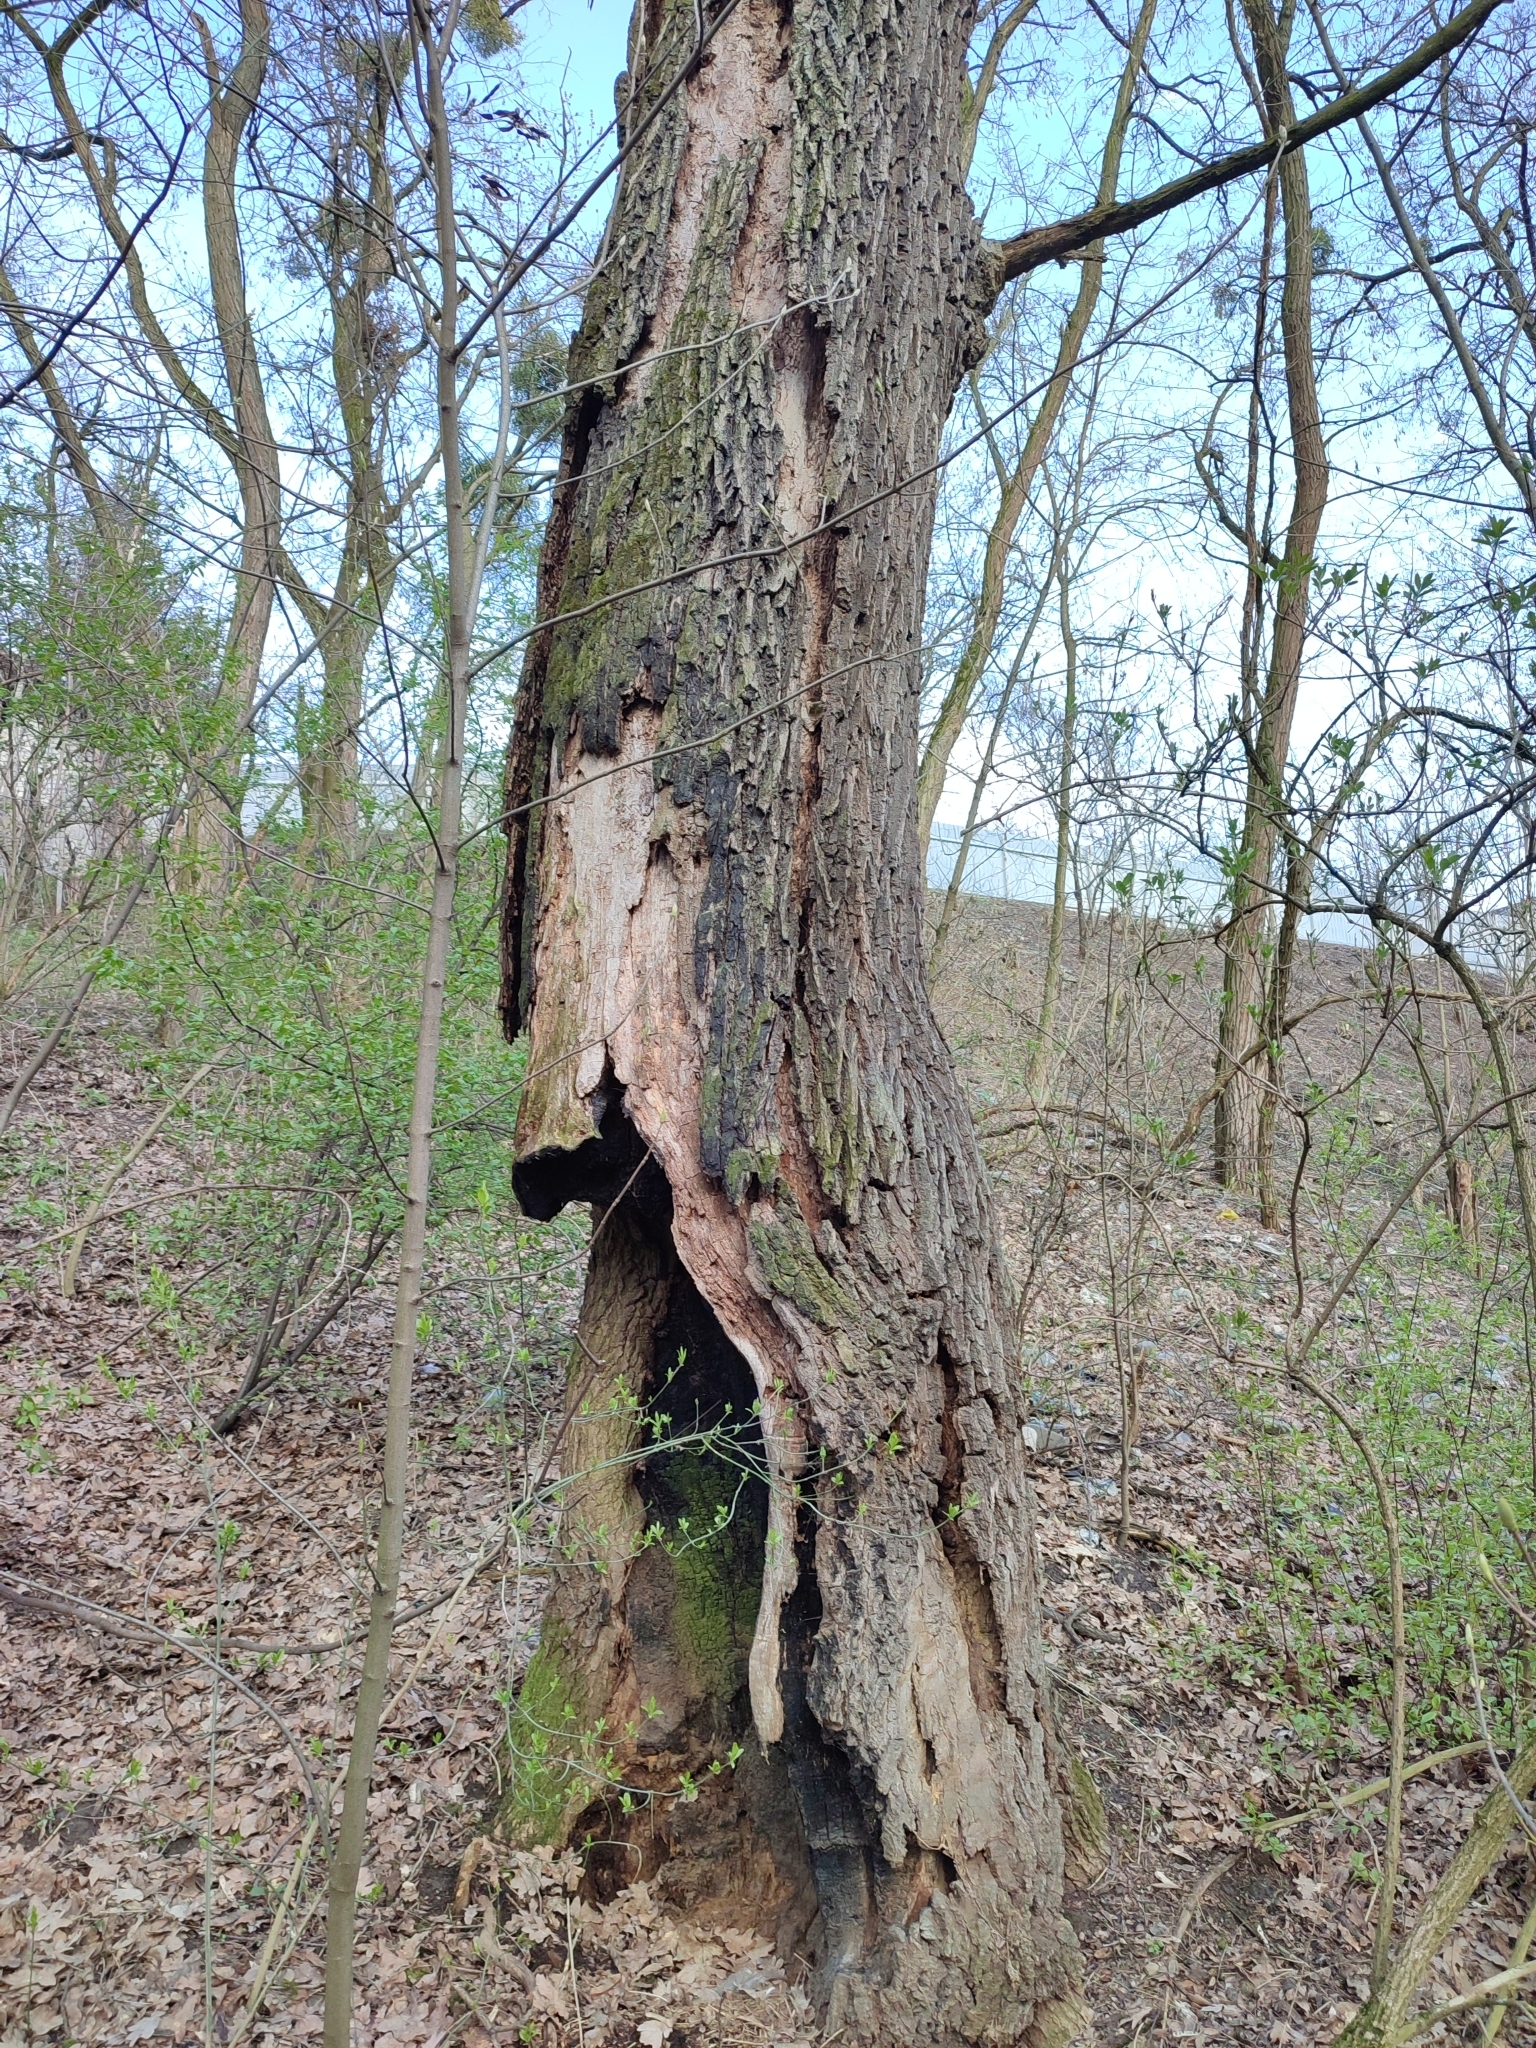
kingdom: Plantae
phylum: Tracheophyta
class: Magnoliopsida
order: Fagales
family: Fagaceae
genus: Quercus
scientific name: Quercus robur
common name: Pedunculate oak
